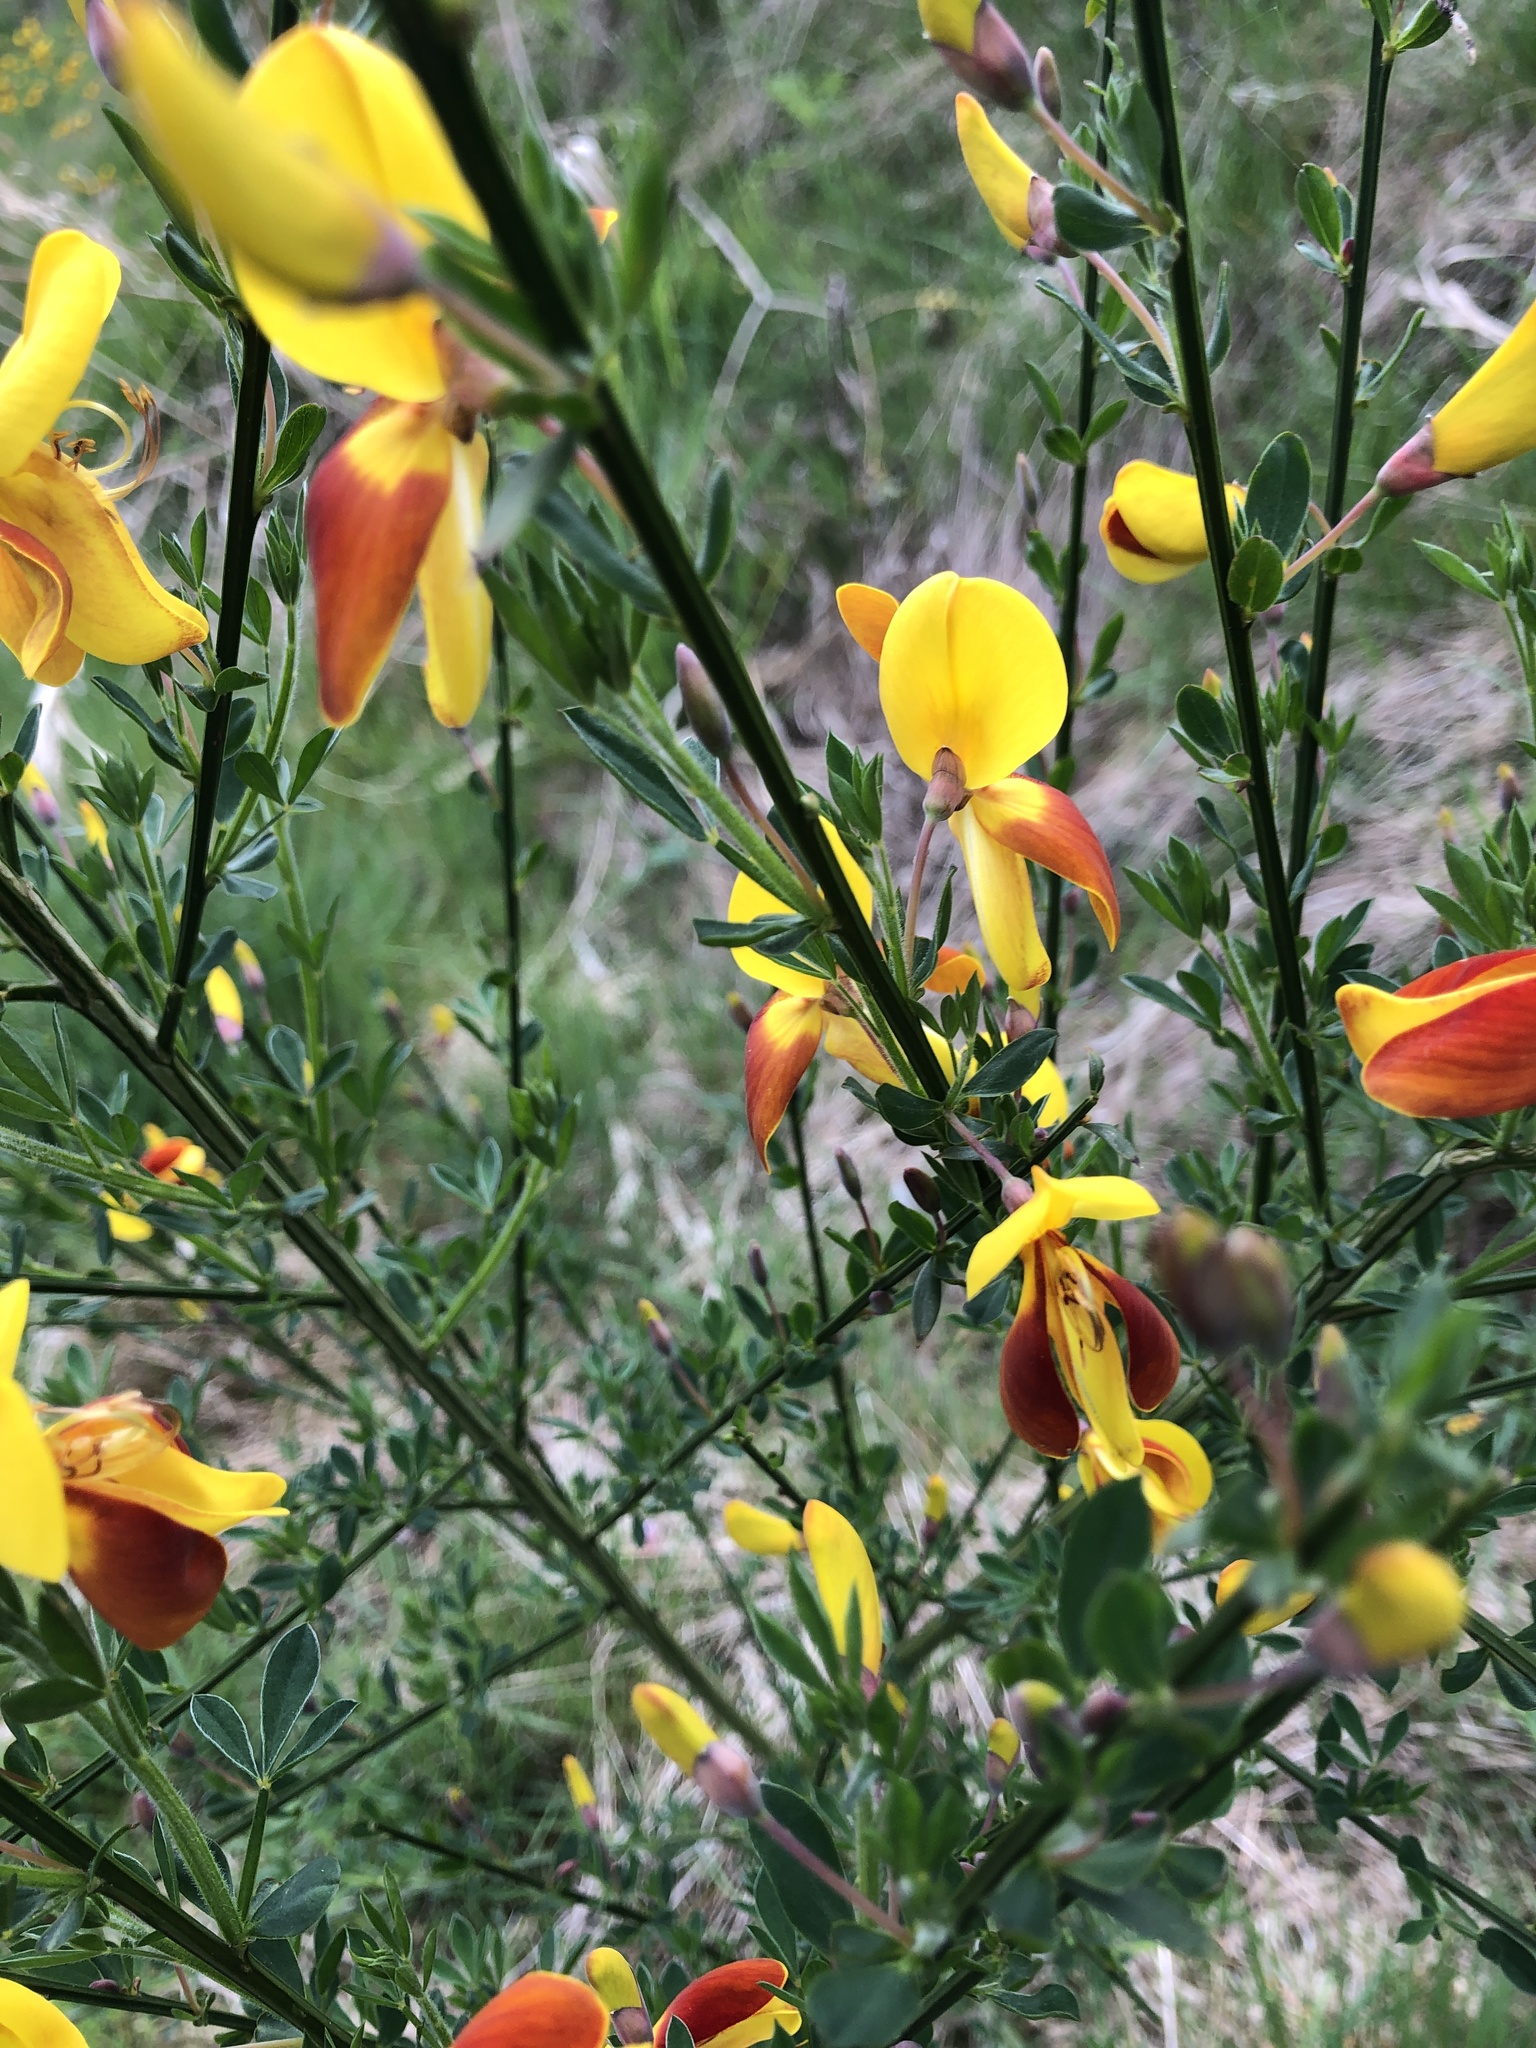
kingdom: Plantae
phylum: Tracheophyta
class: Magnoliopsida
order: Fabales
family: Fabaceae
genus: Cytisus
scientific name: Cytisus scoparius
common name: Scotch broom
